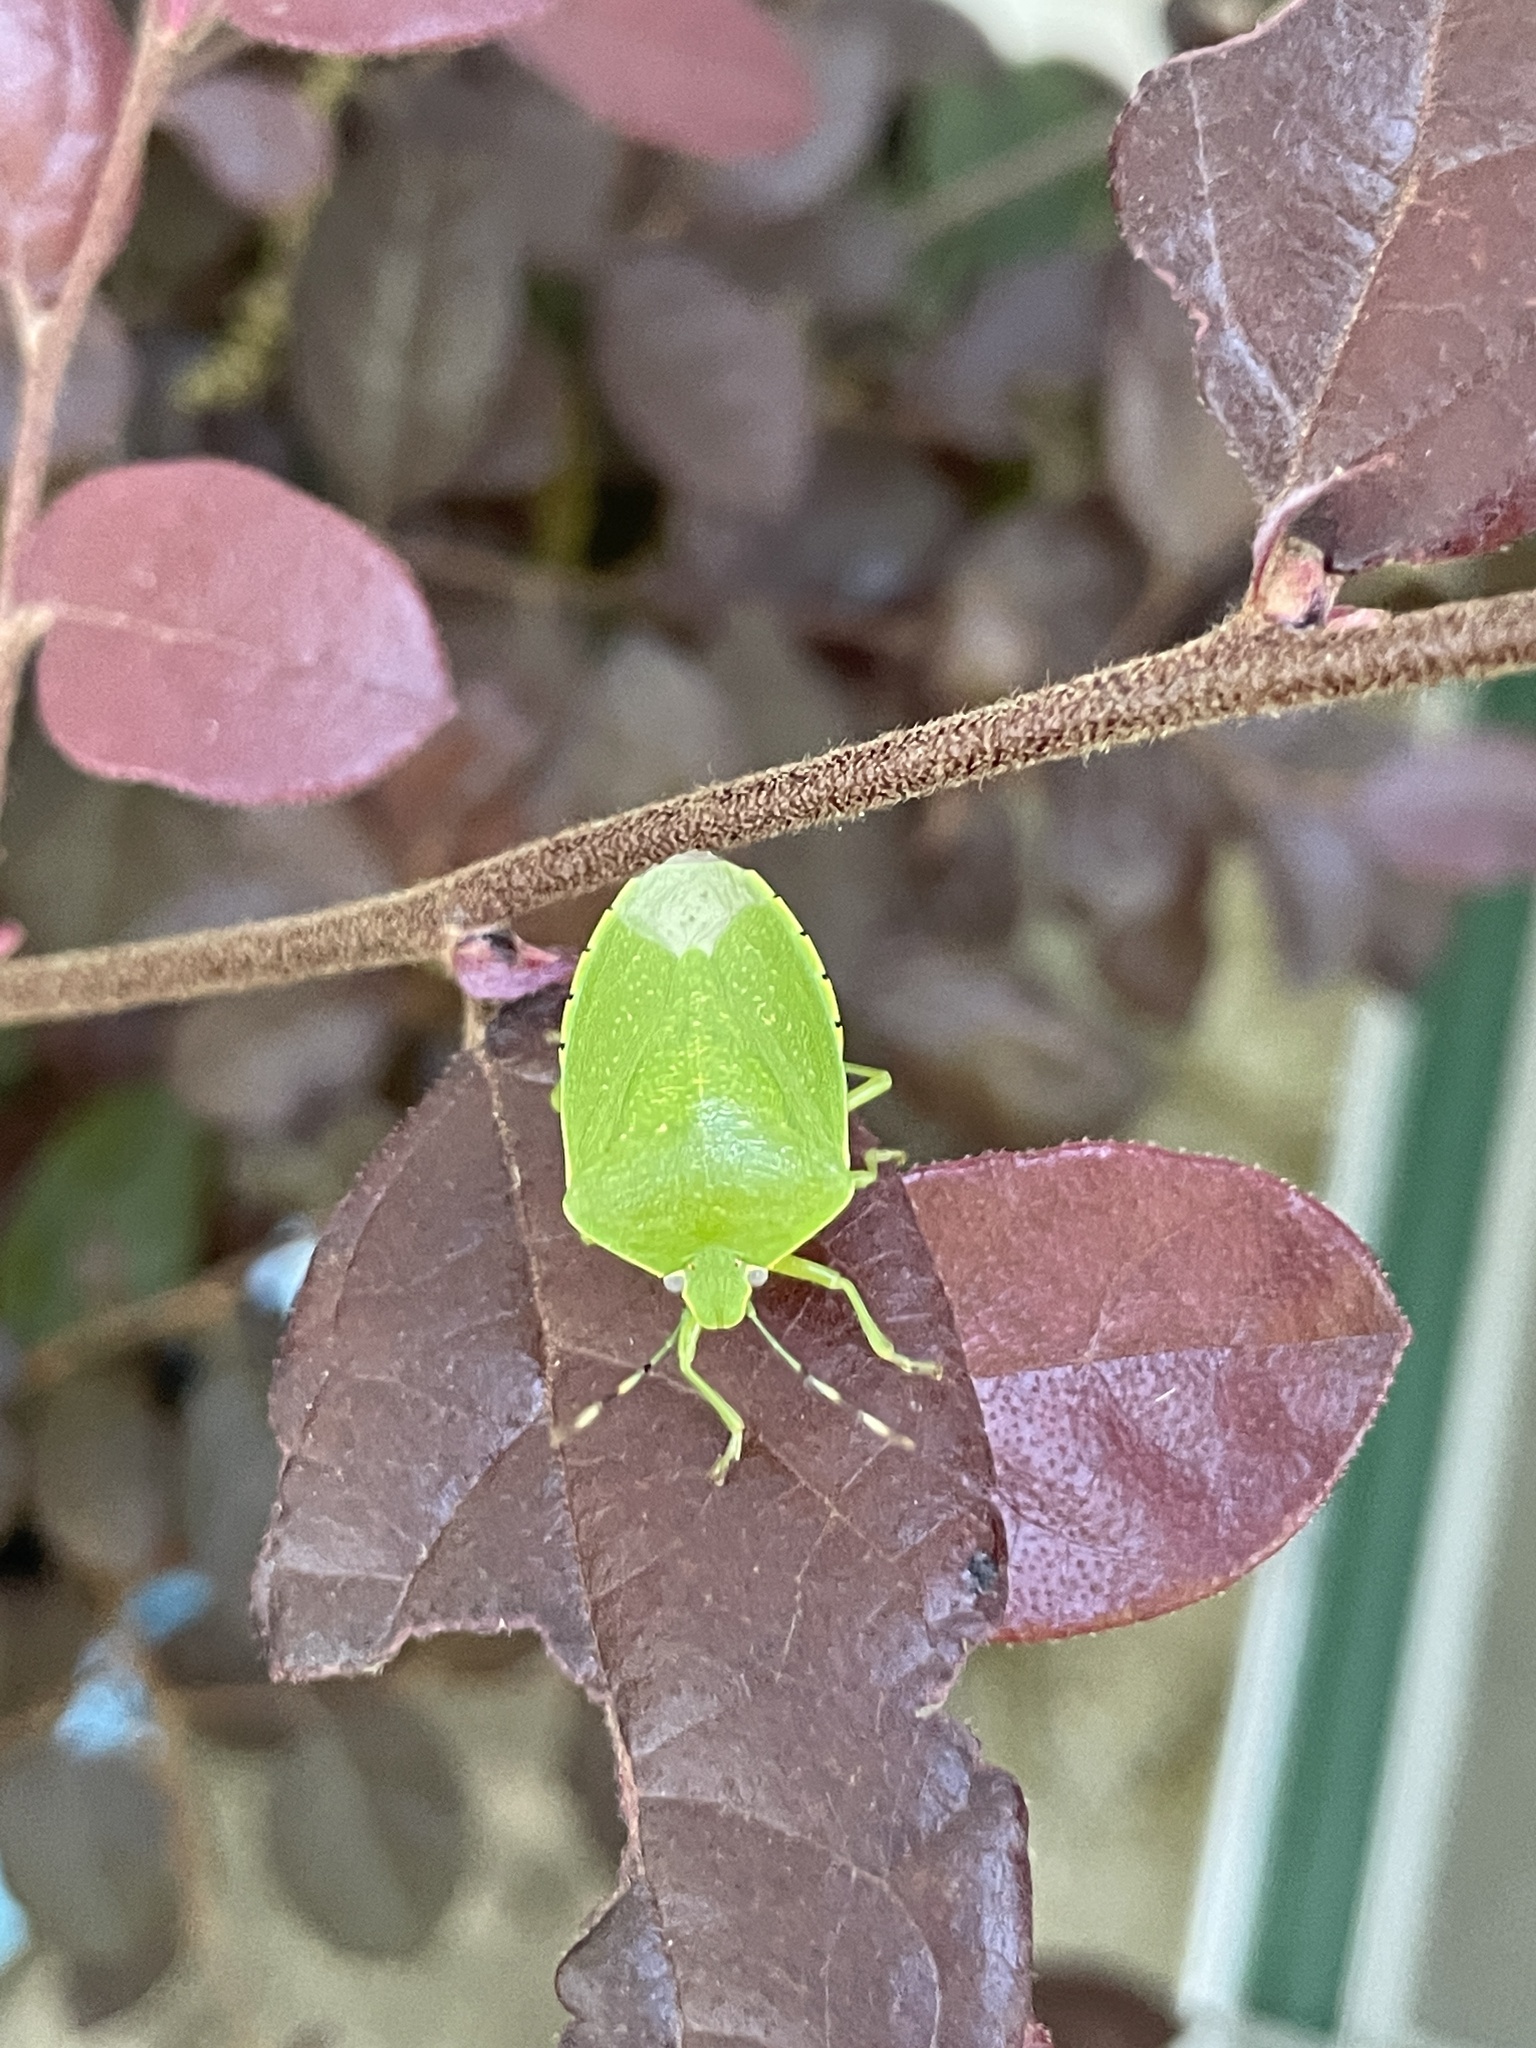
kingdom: Animalia
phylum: Arthropoda
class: Insecta
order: Hemiptera
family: Pentatomidae
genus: Chinavia
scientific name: Chinavia hilaris
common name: Green stink bug
